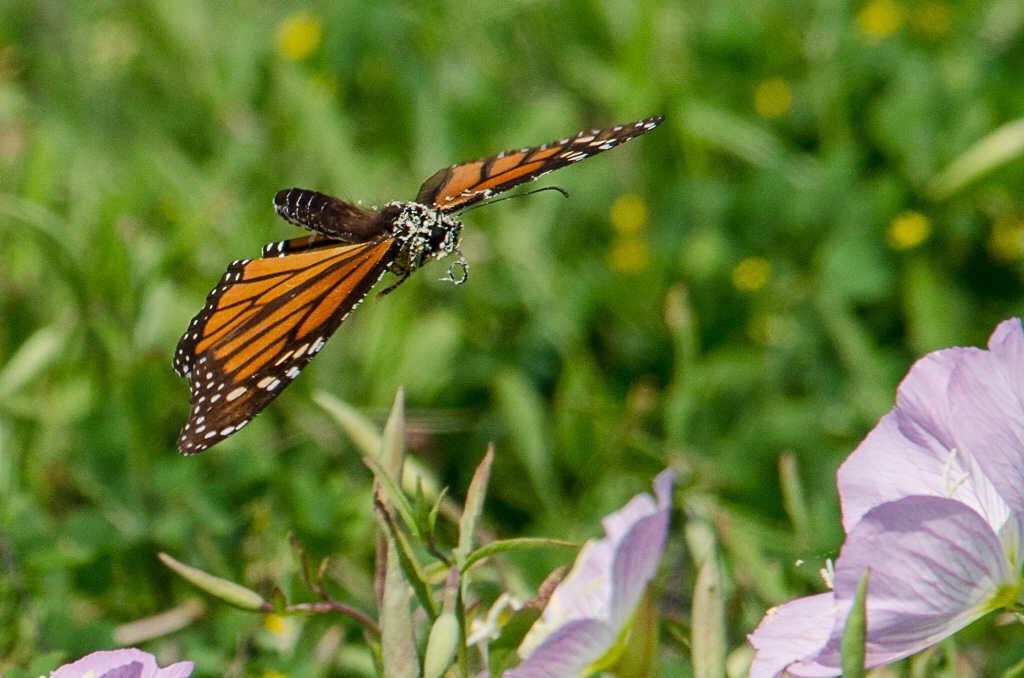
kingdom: Animalia
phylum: Arthropoda
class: Insecta
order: Lepidoptera
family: Nymphalidae
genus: Danaus
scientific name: Danaus plexippus
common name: Monarch
